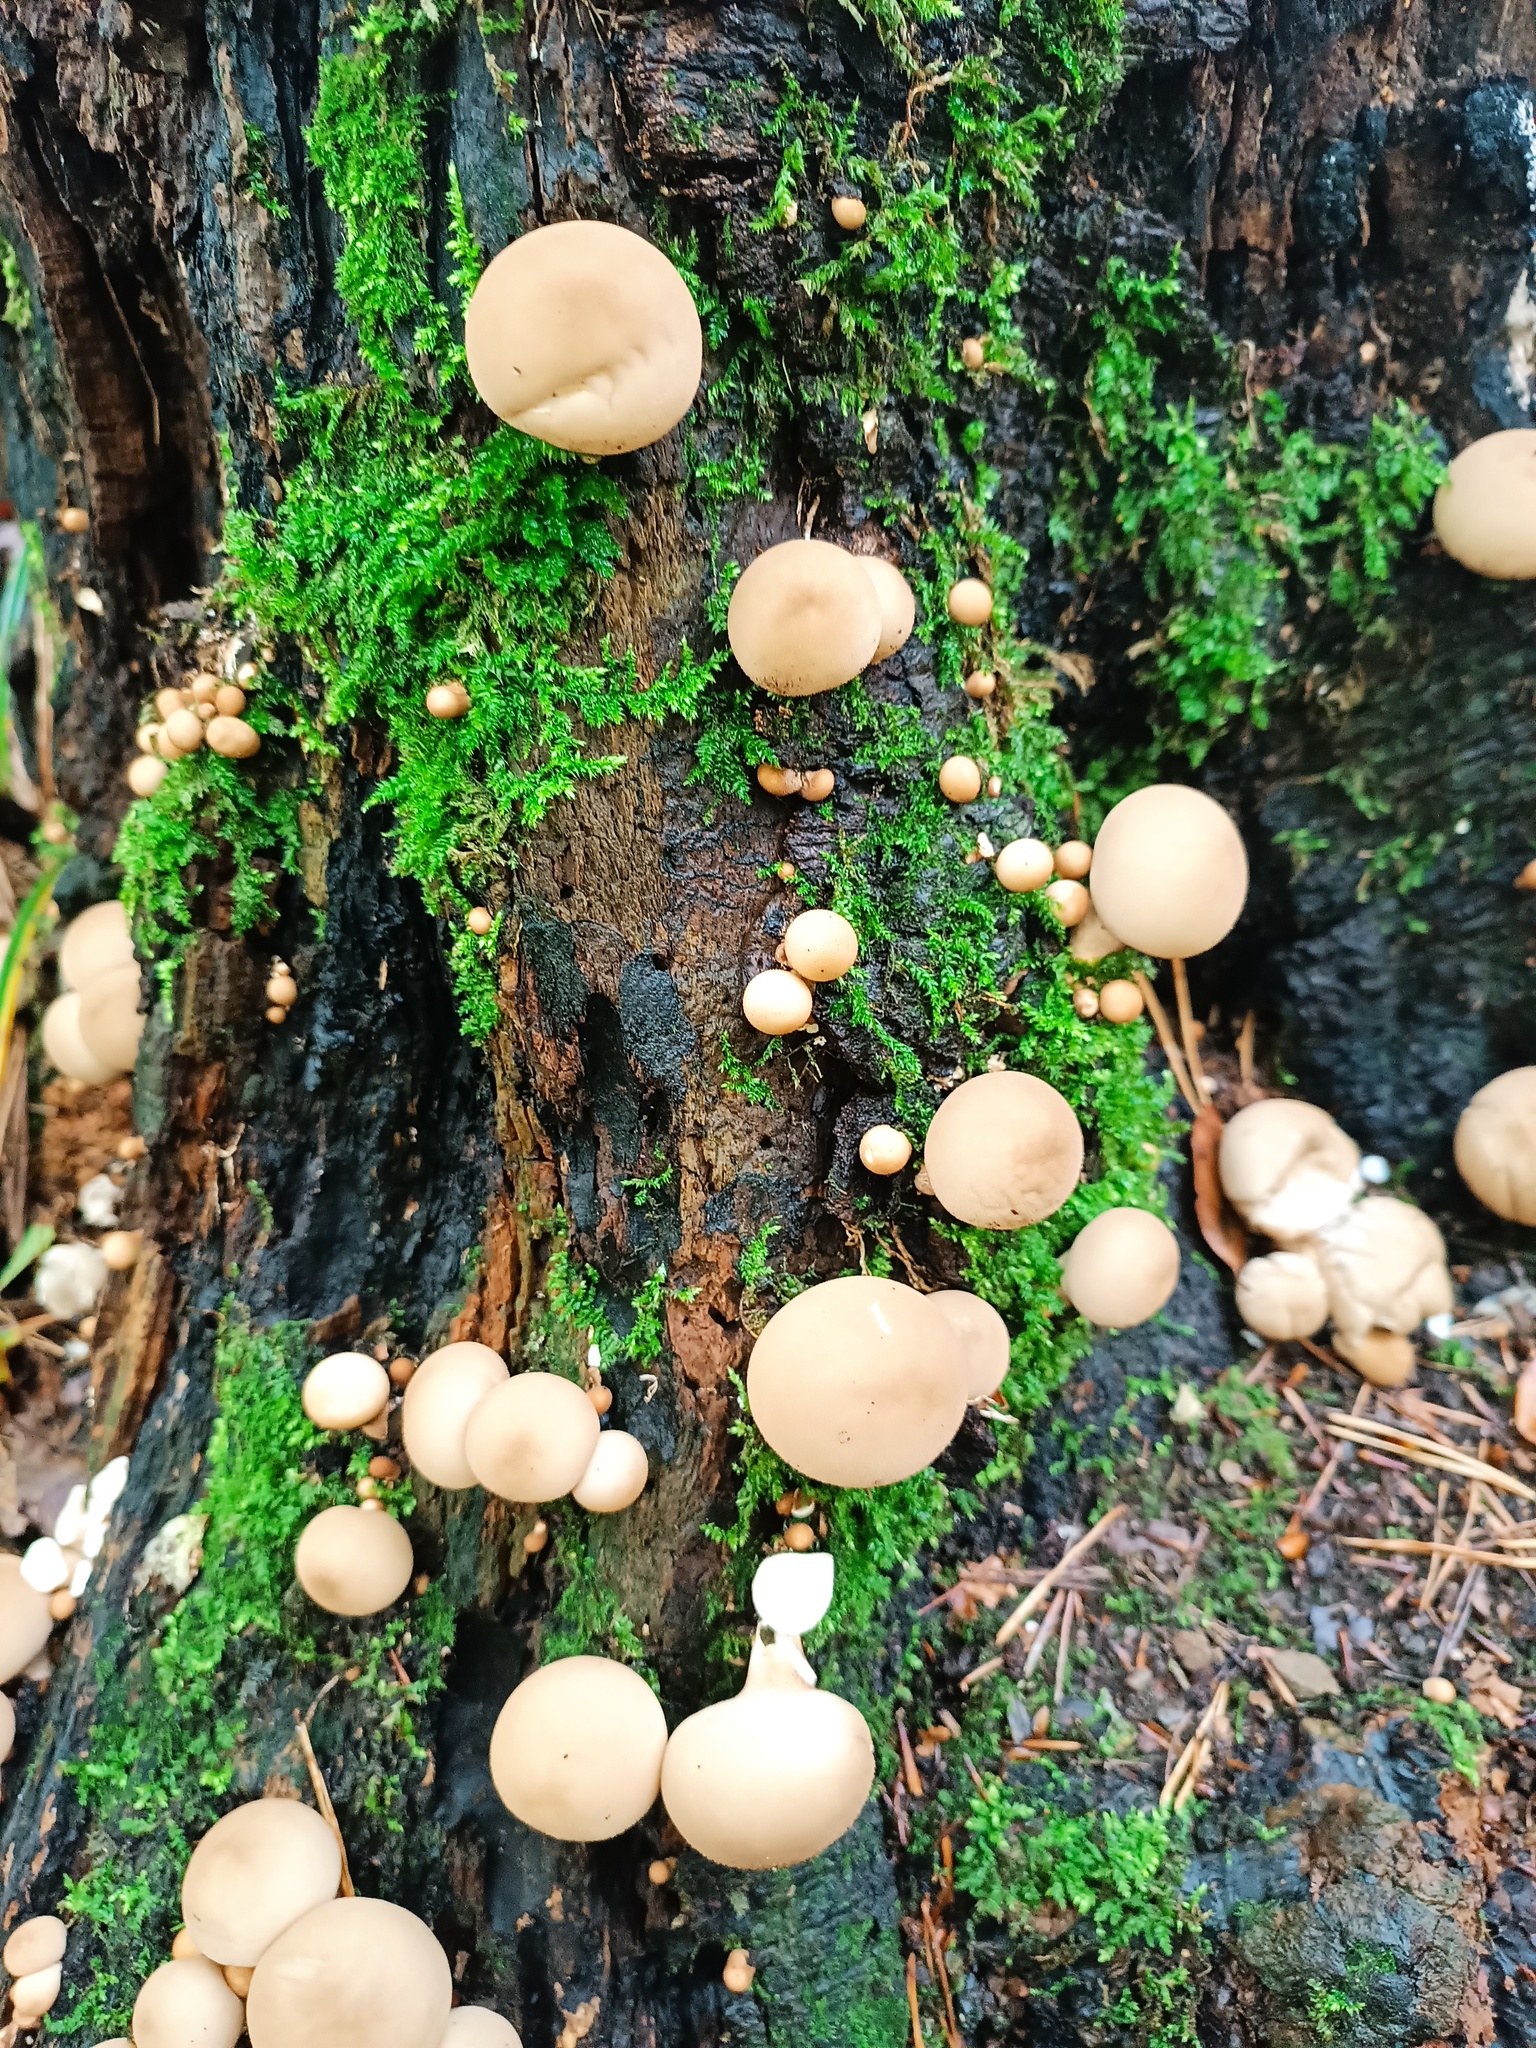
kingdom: Fungi
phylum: Basidiomycota
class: Agaricomycetes
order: Agaricales
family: Lycoperdaceae
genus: Apioperdon
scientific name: Apioperdon pyriforme
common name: Pear-shaped puffball
